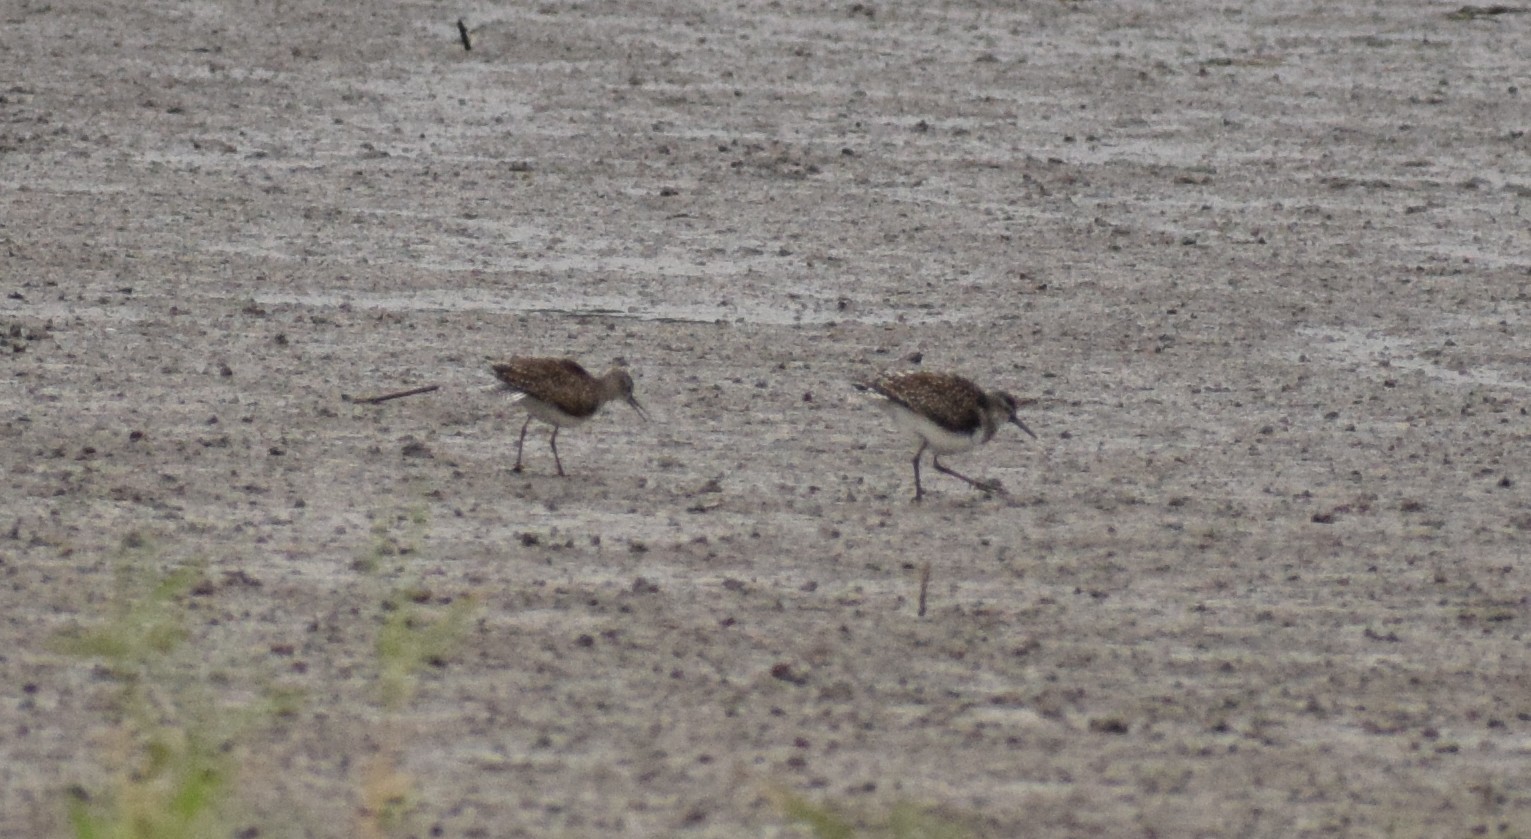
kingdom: Animalia
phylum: Chordata
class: Aves
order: Charadriiformes
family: Scolopacidae
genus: Tringa
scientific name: Tringa glareola
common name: Wood sandpiper
